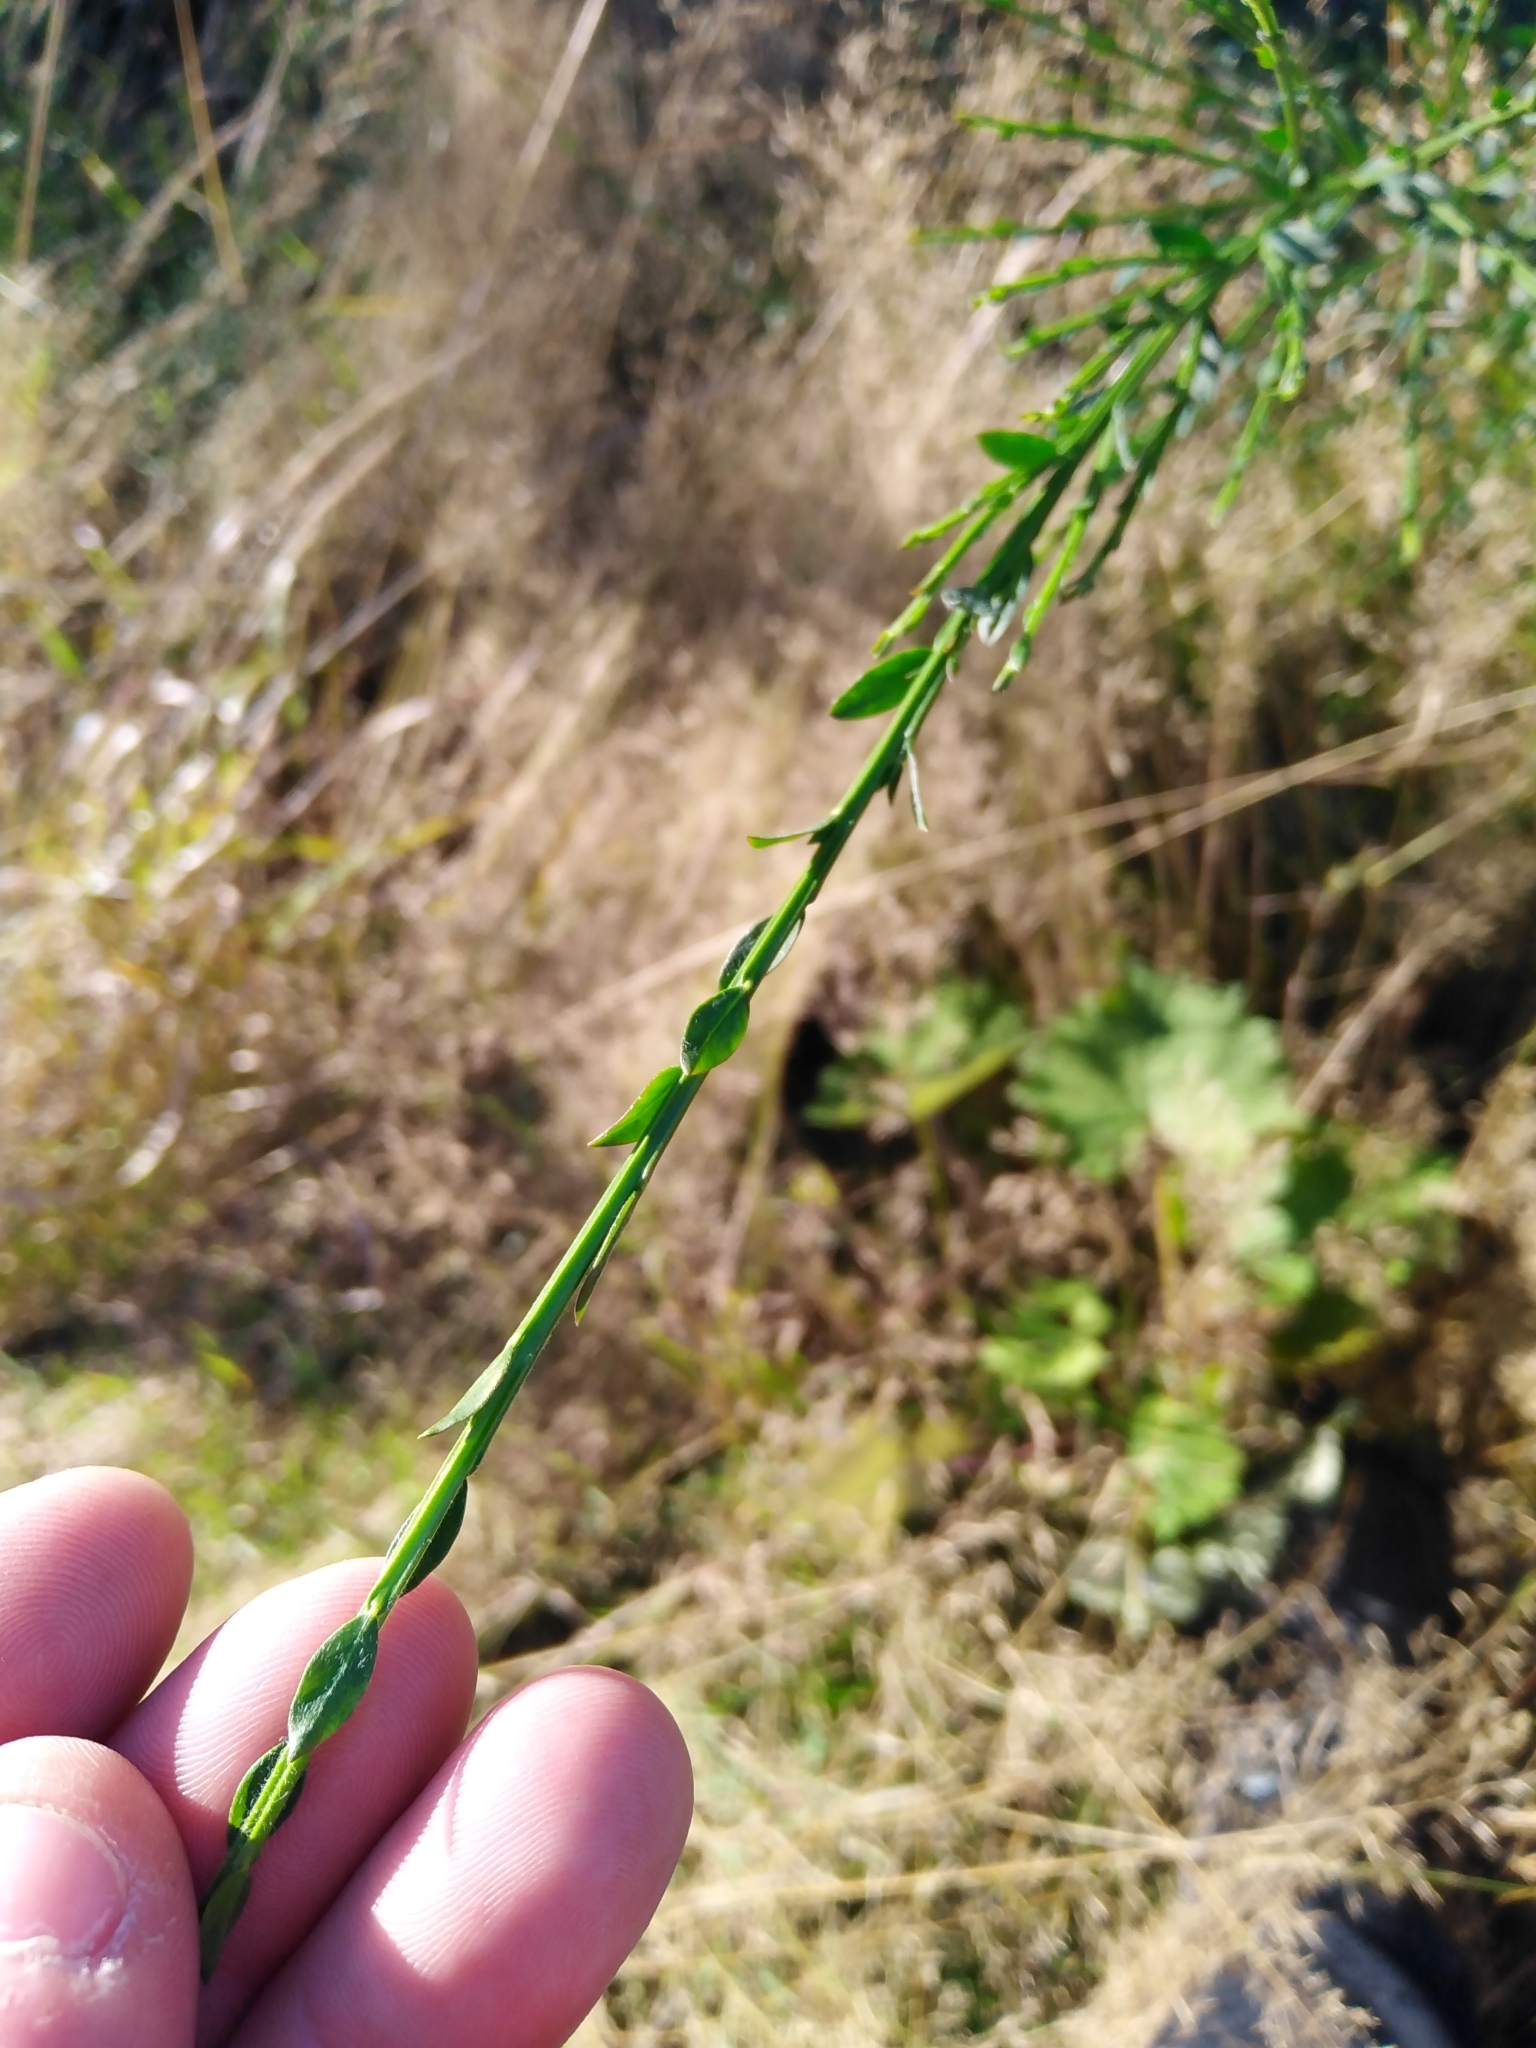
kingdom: Plantae
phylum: Tracheophyta
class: Magnoliopsida
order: Fabales
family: Fabaceae
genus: Cytisus
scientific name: Cytisus scoparius
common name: Scotch broom
